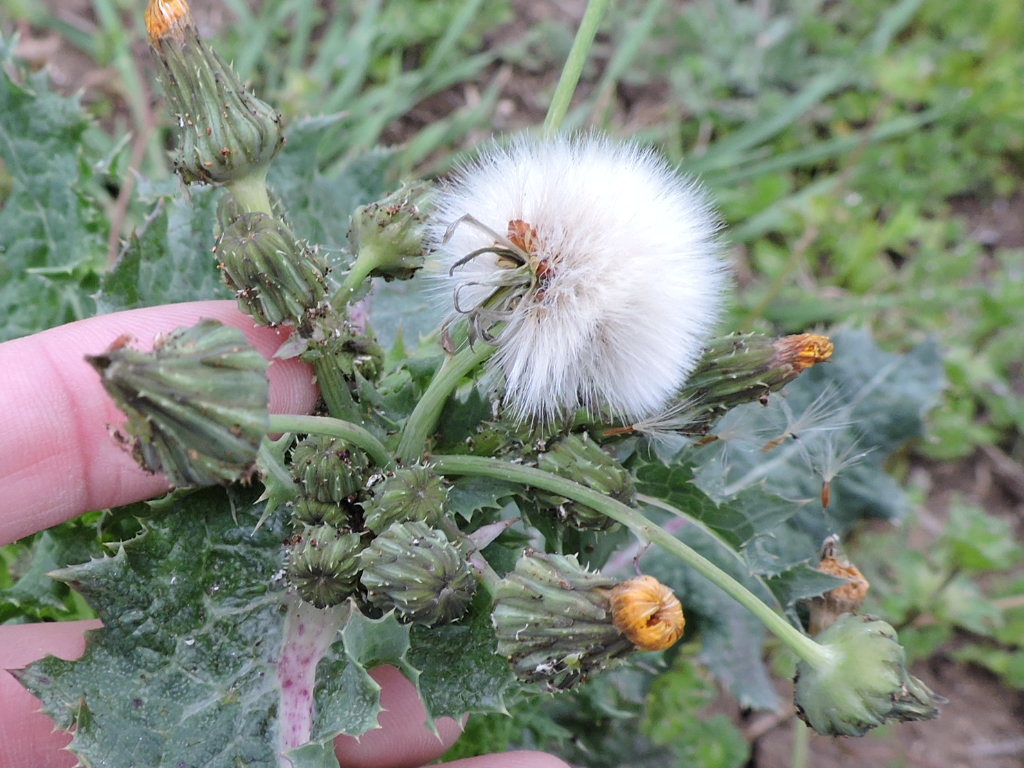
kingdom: Plantae
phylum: Tracheophyta
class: Magnoliopsida
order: Asterales
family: Asteraceae
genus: Sonchus
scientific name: Sonchus asper
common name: Prickly sow-thistle
